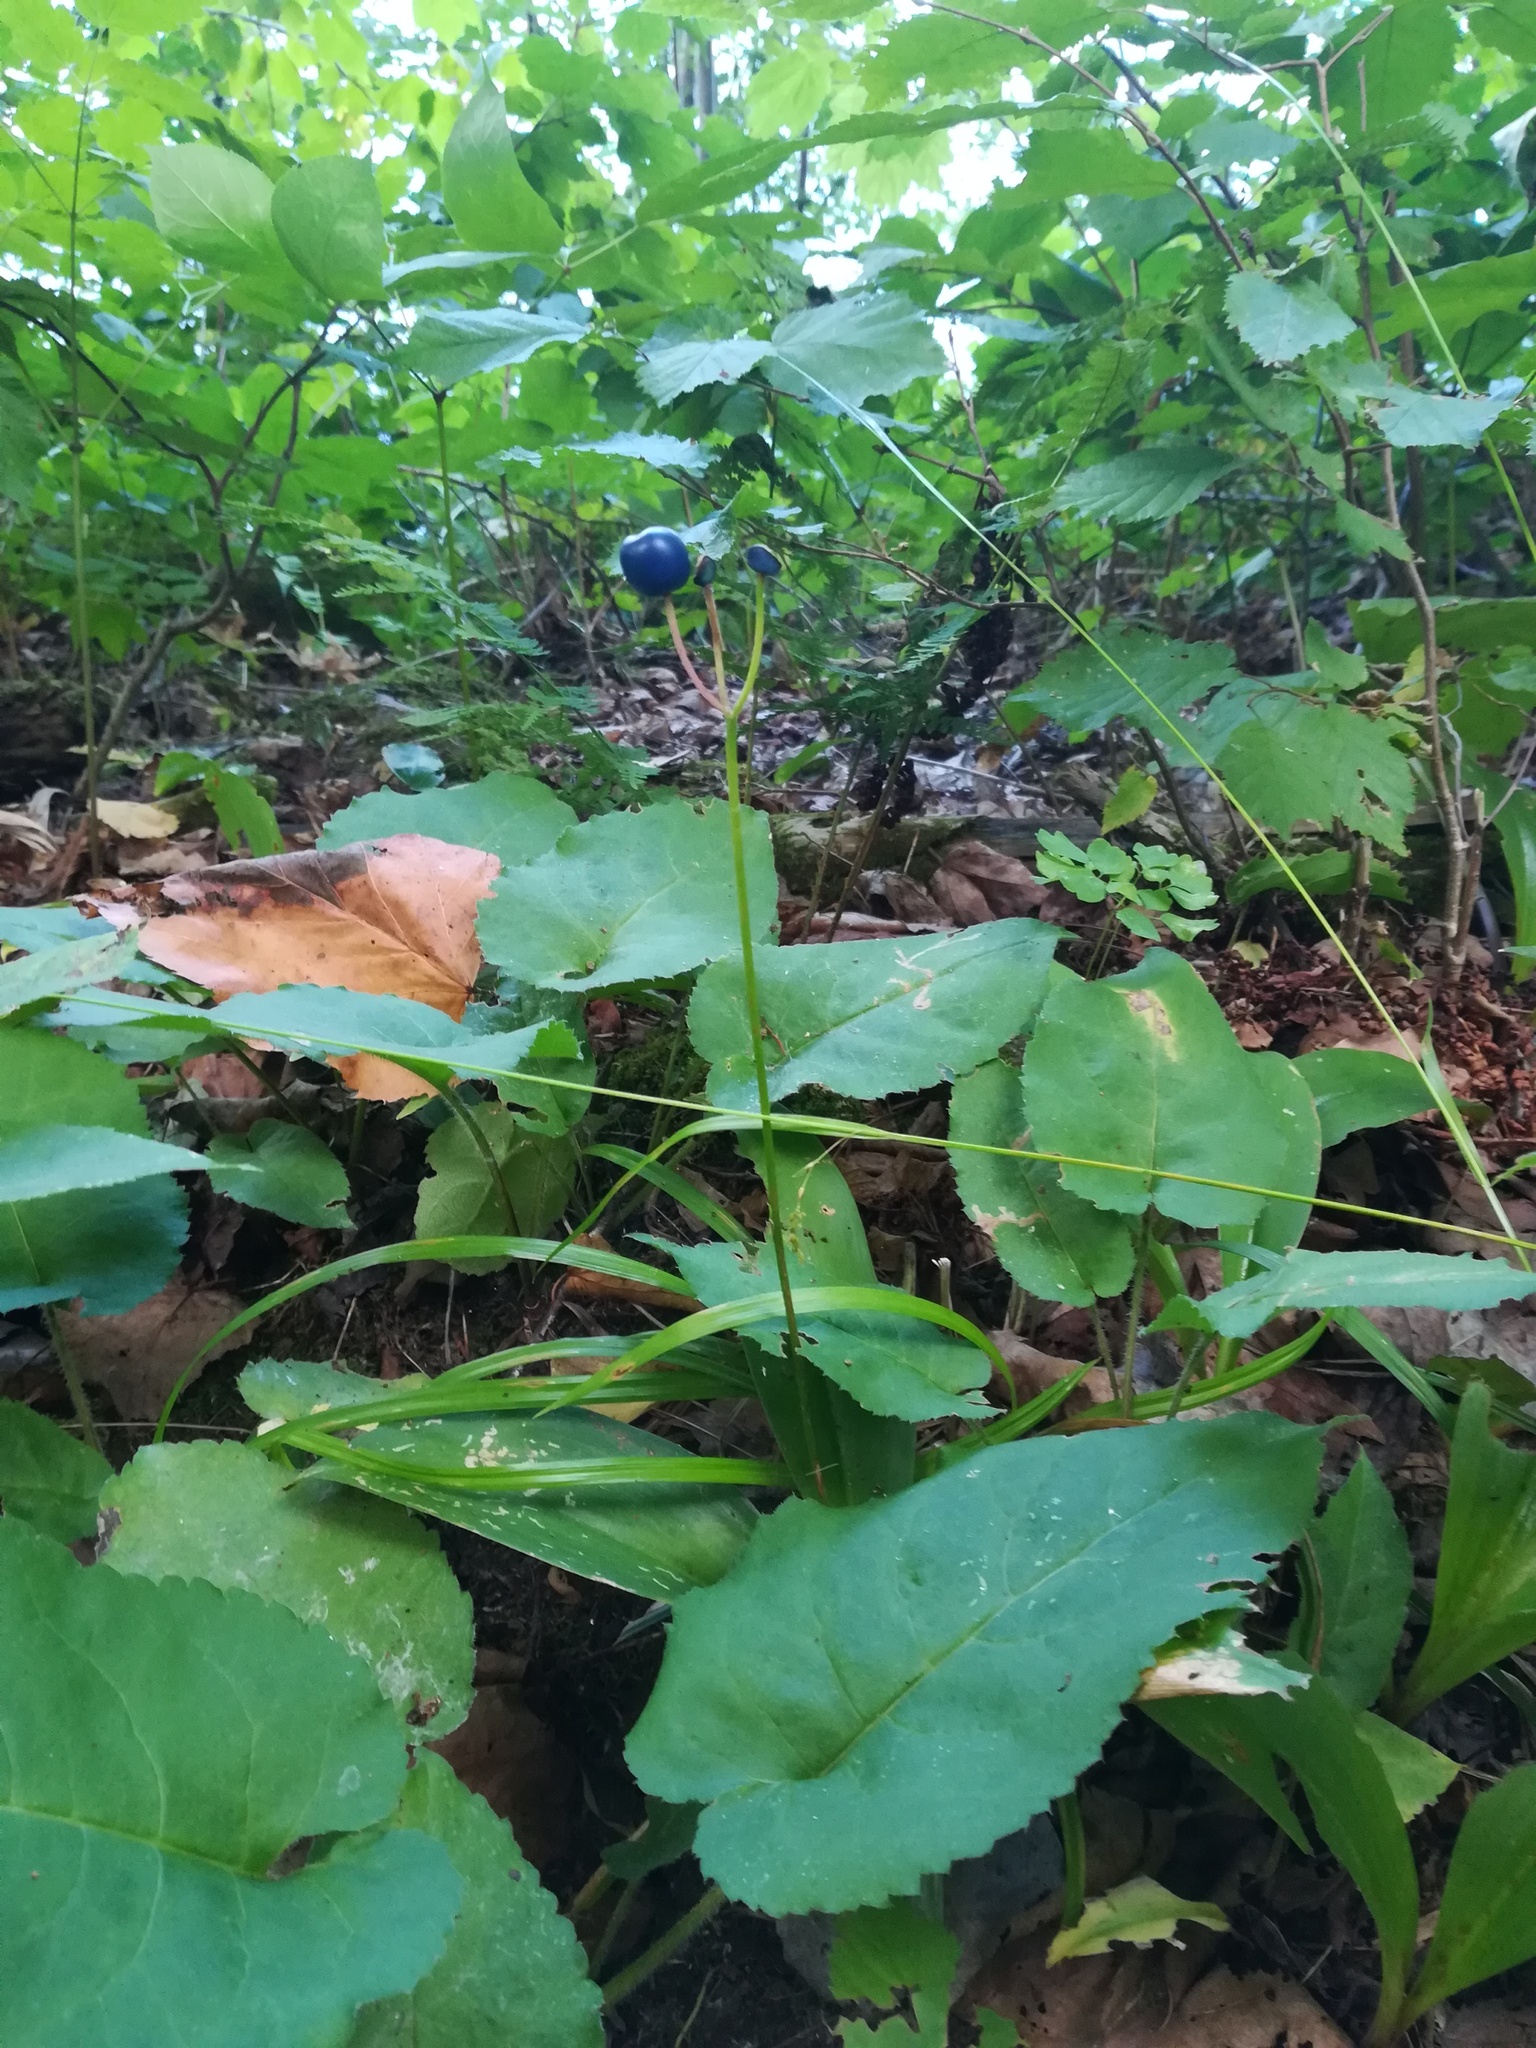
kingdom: Plantae
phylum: Tracheophyta
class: Liliopsida
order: Liliales
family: Liliaceae
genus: Clintonia
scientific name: Clintonia borealis
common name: Yellow clintonia
